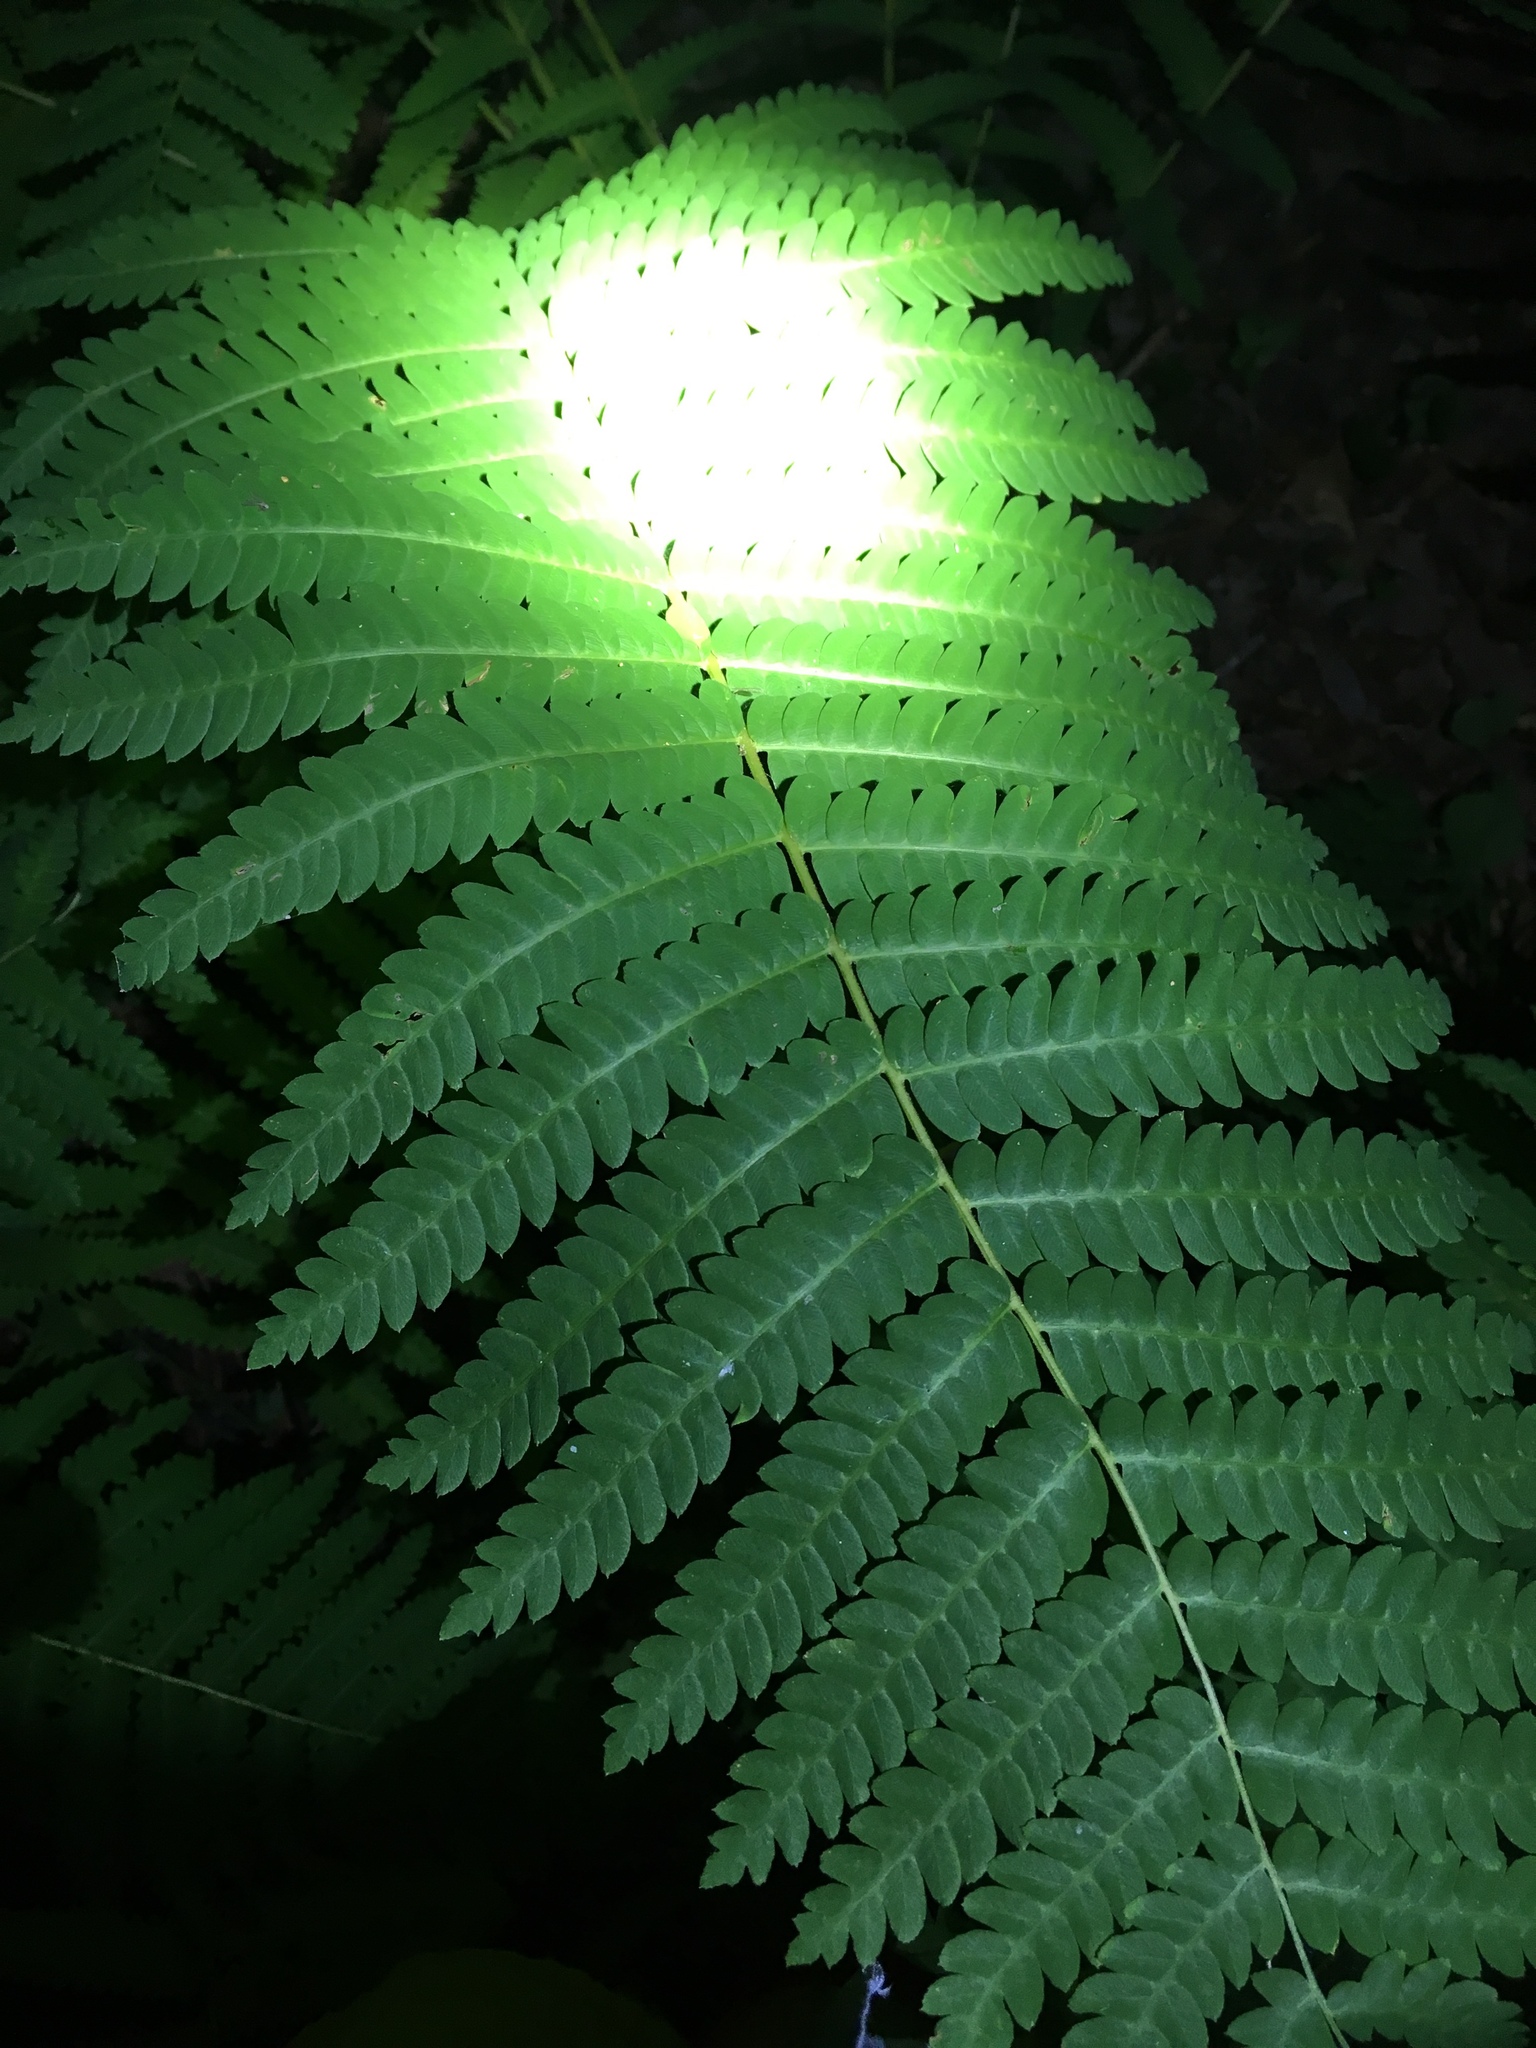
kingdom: Plantae
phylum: Tracheophyta
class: Polypodiopsida
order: Osmundales
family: Osmundaceae
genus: Claytosmunda
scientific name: Claytosmunda claytoniana
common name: Clayton's fern
